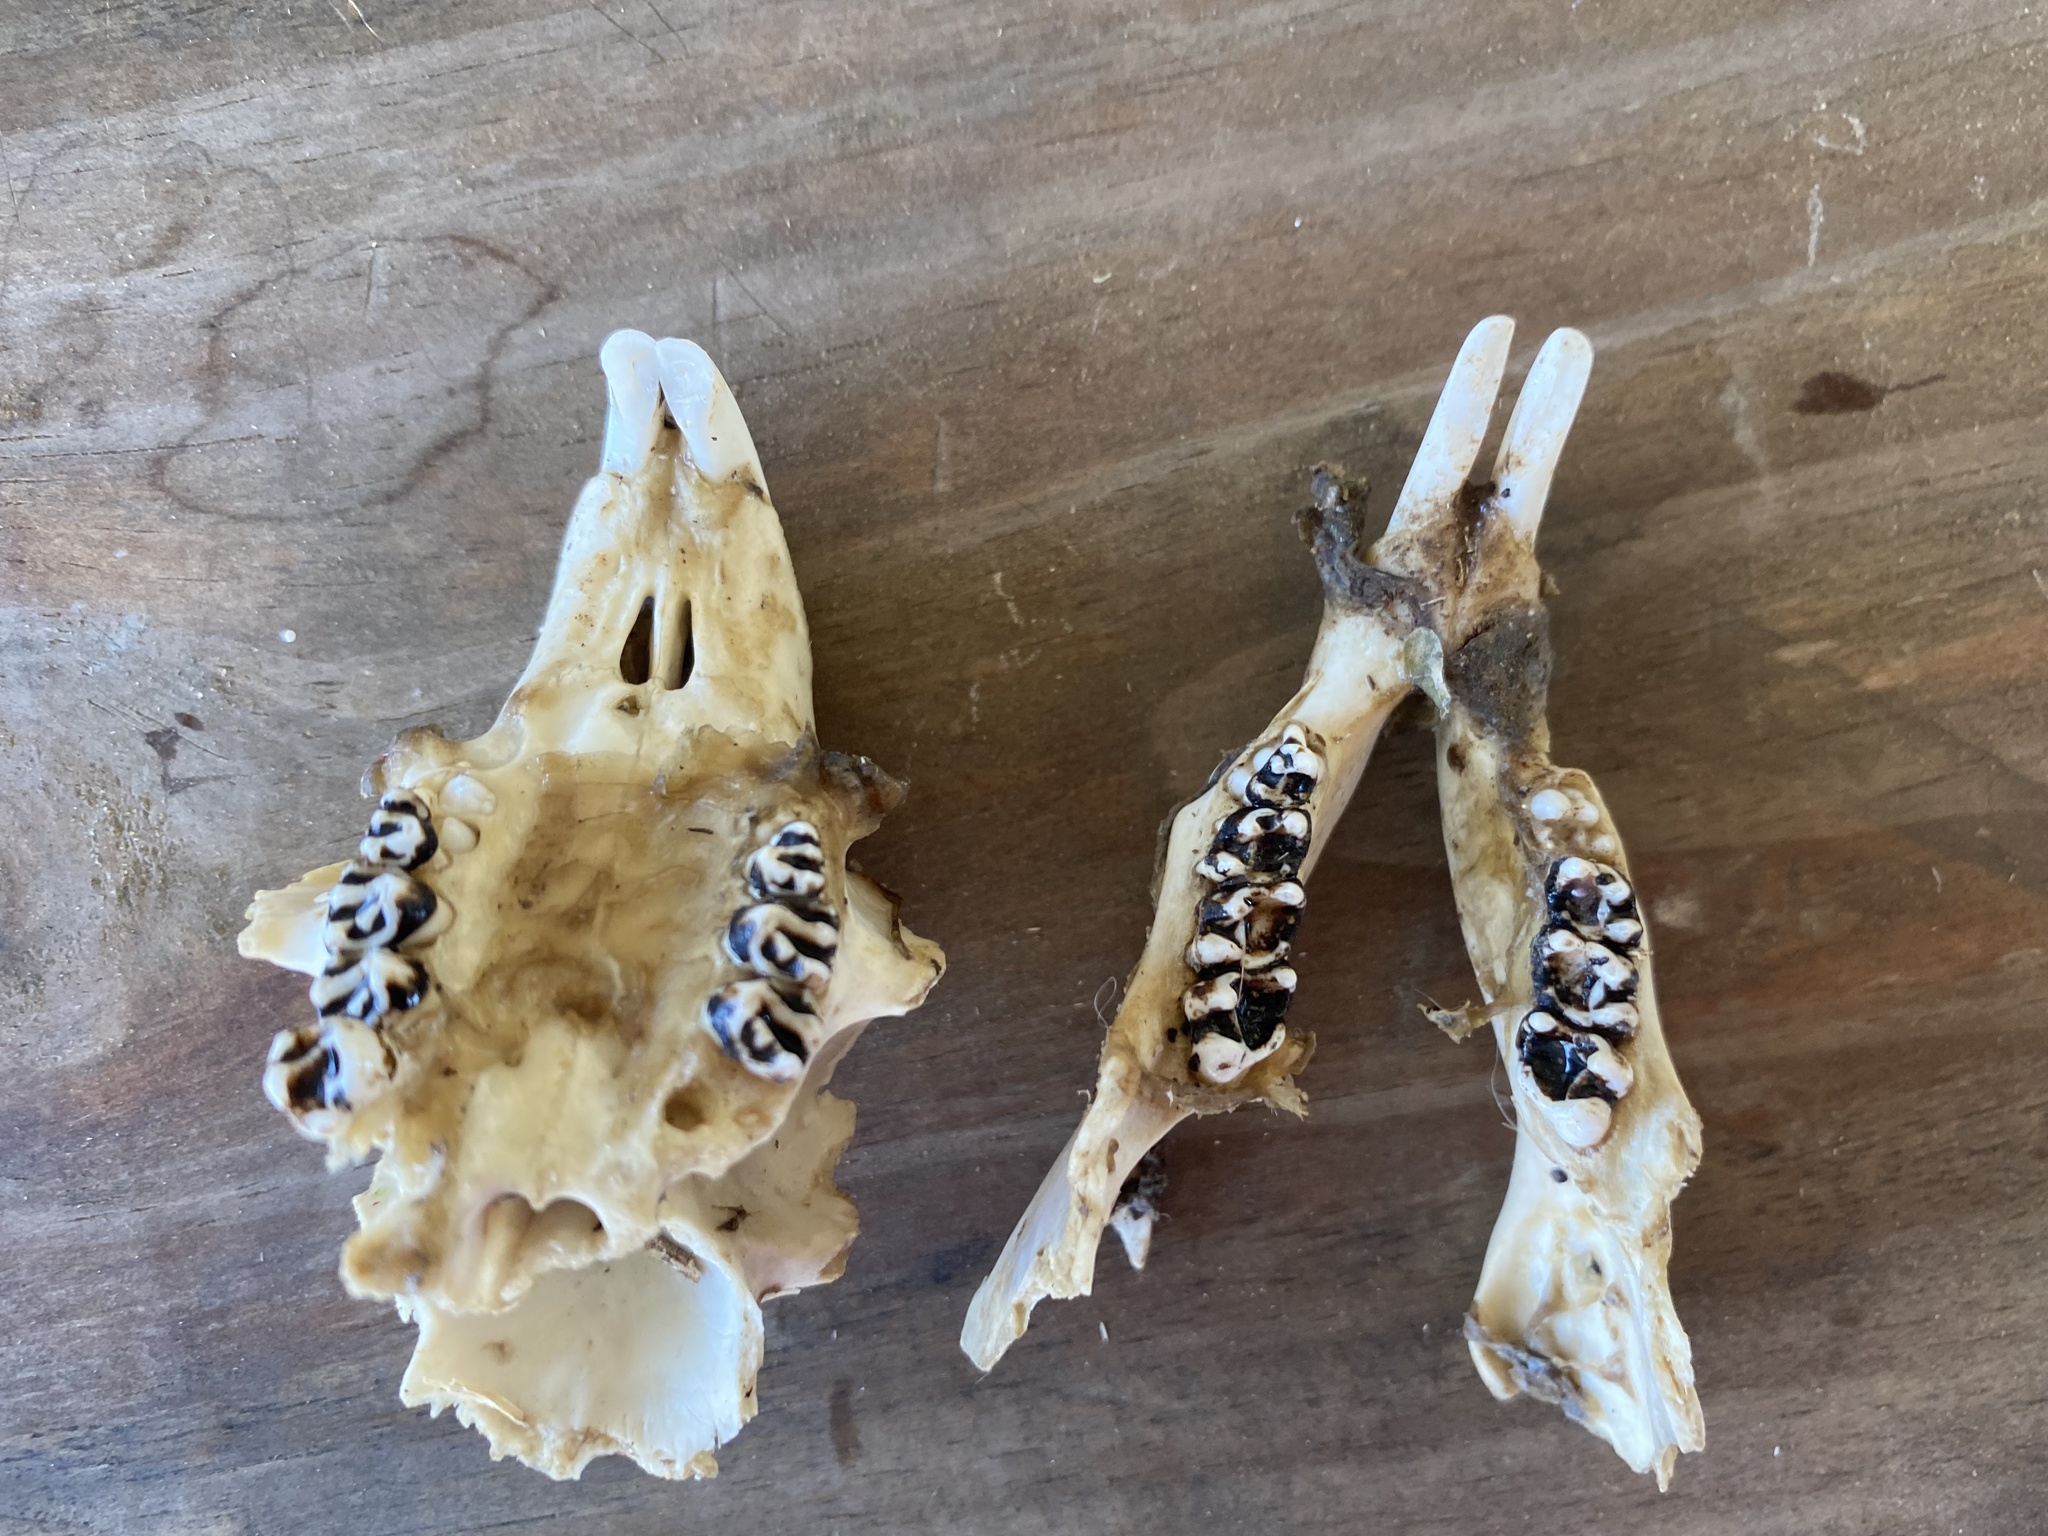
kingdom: Animalia
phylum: Chordata
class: Mammalia
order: Rodentia
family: Sciuridae
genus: Marmota
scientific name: Marmota monax
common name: Groundhog
